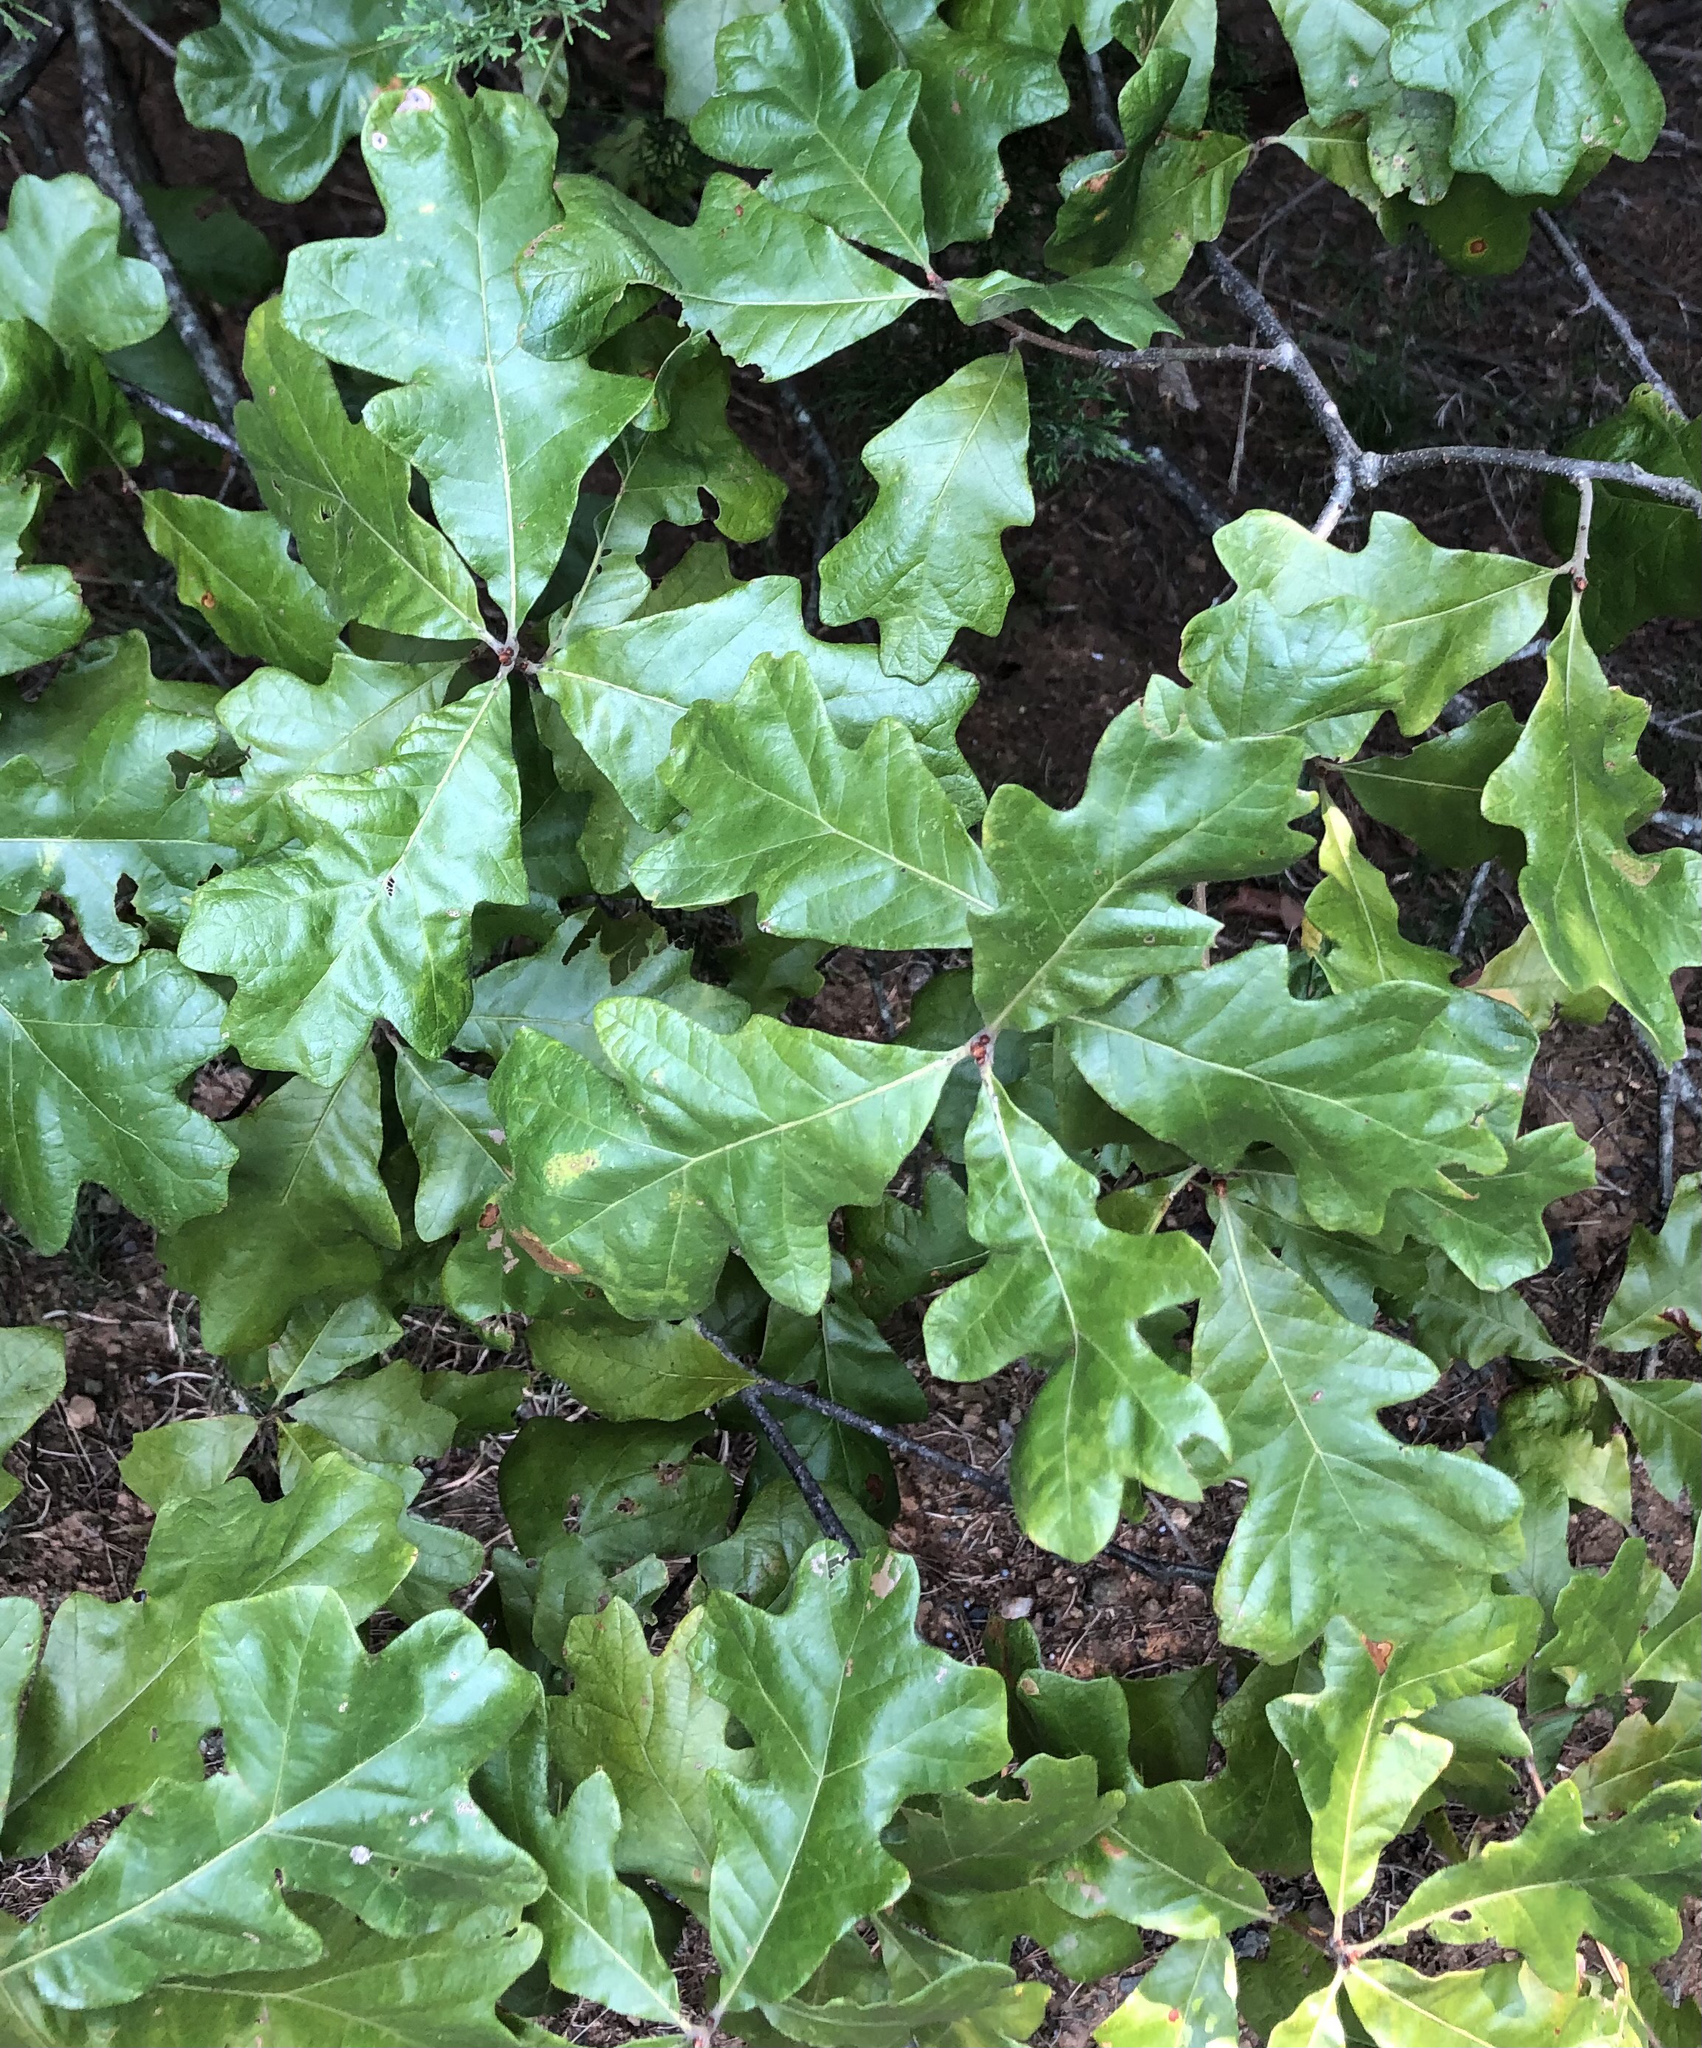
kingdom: Plantae
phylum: Tracheophyta
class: Magnoliopsida
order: Fagales
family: Fagaceae
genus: Quercus
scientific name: Quercus stellata
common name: Post oak
